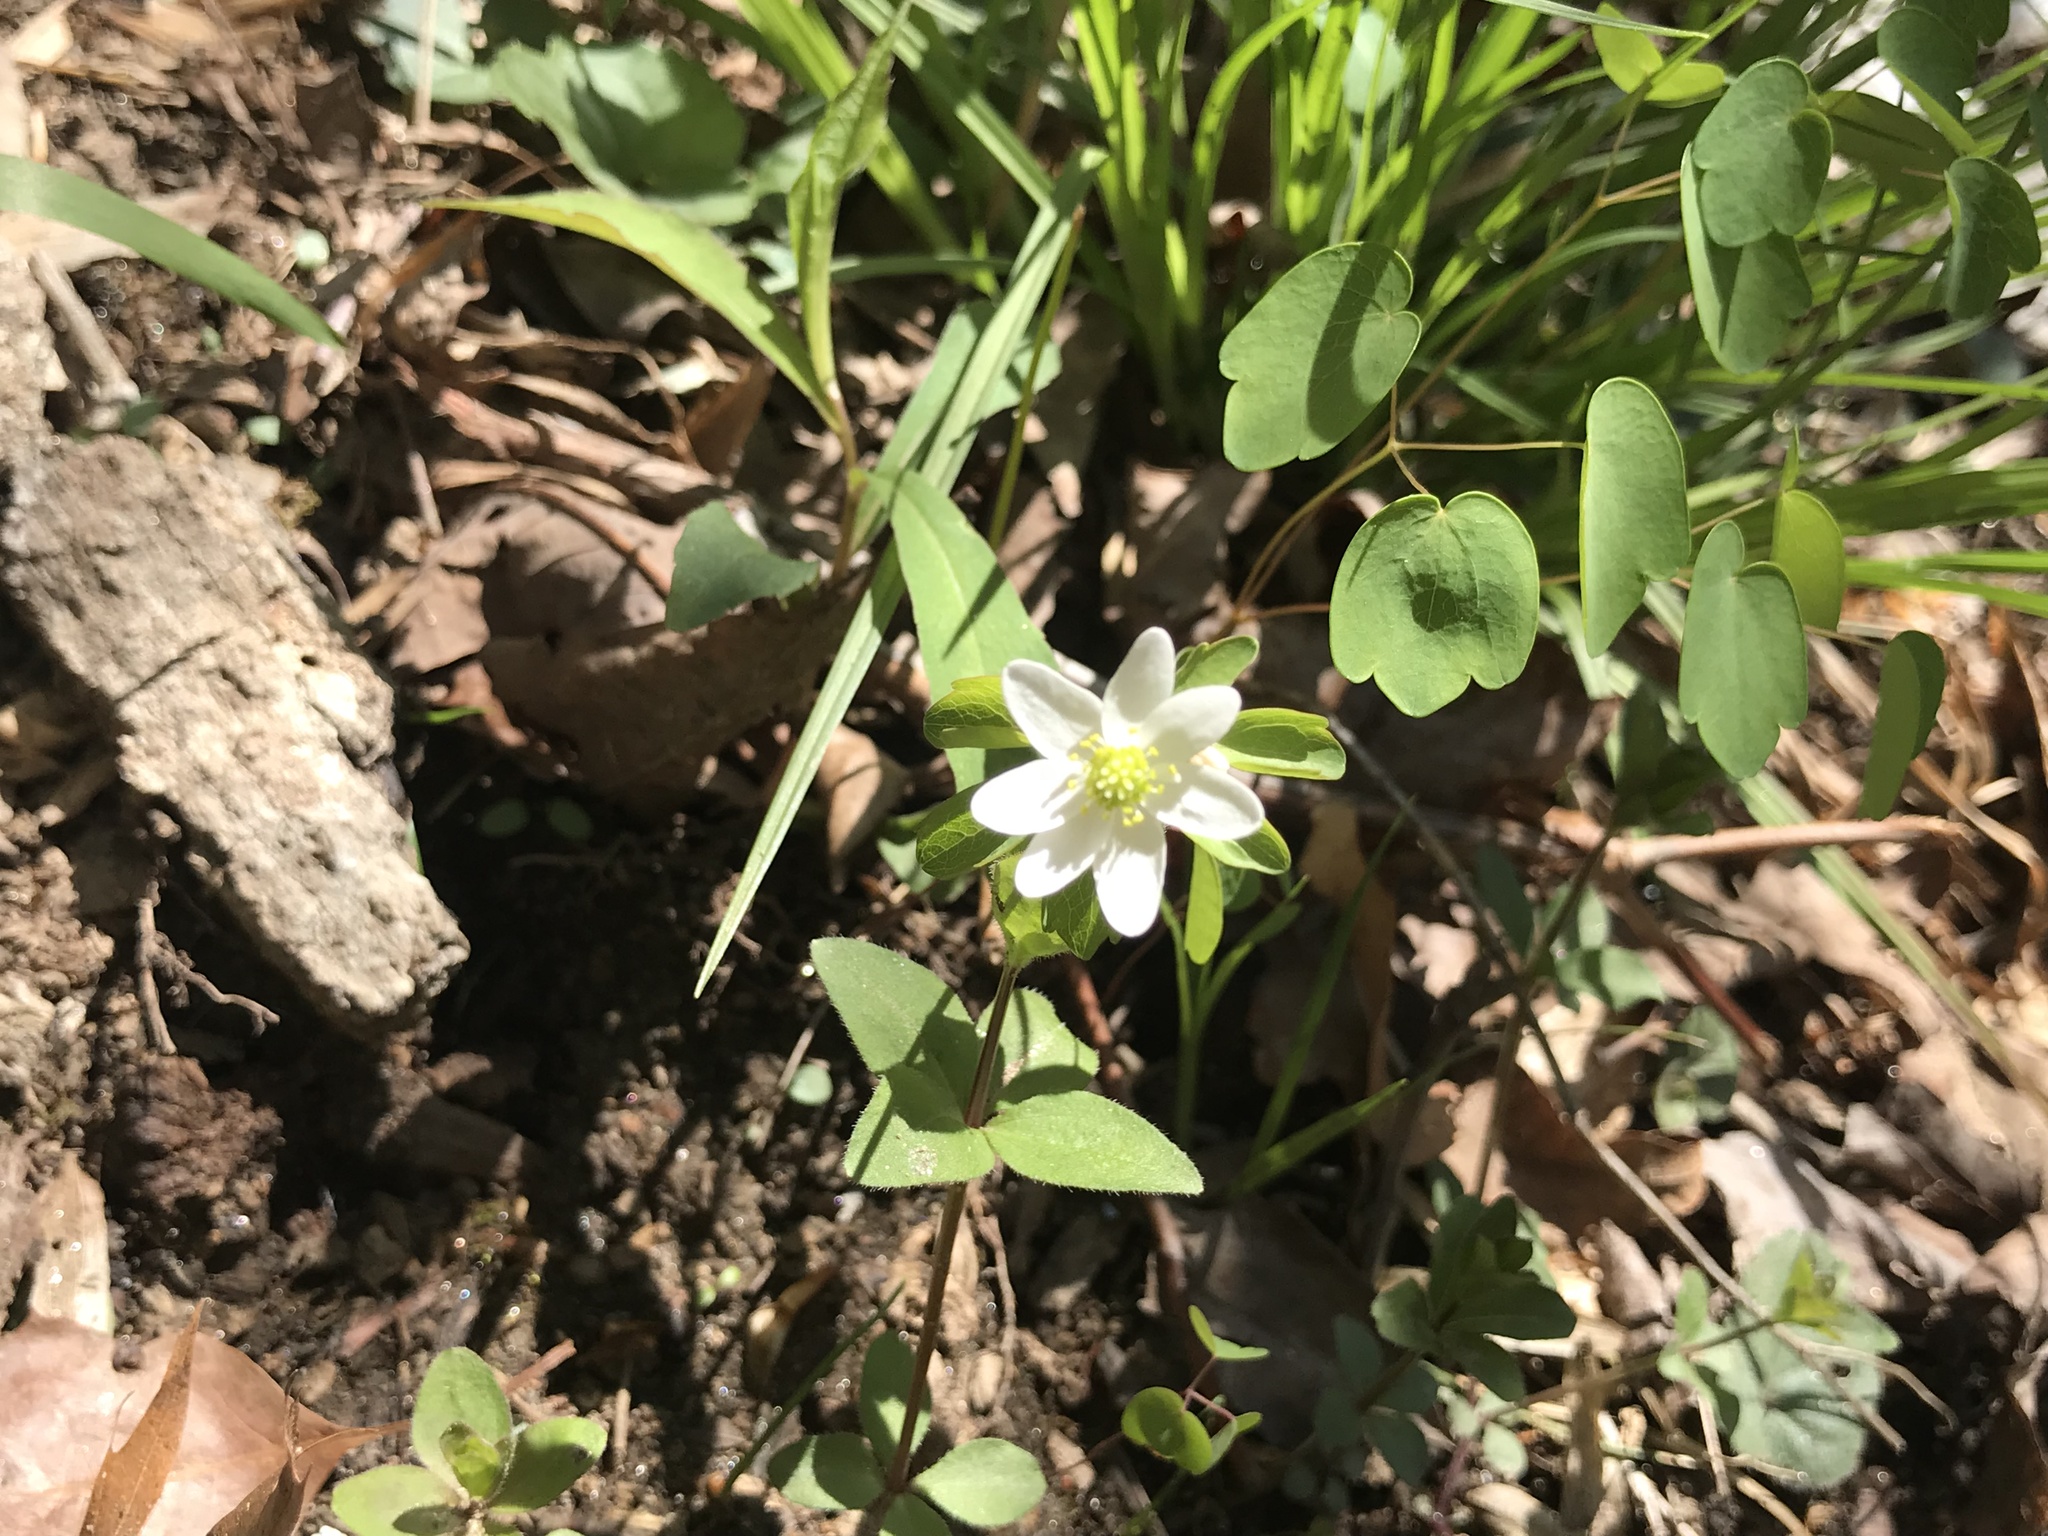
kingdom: Plantae
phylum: Tracheophyta
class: Magnoliopsida
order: Ranunculales
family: Ranunculaceae
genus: Thalictrum
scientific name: Thalictrum thalictroides
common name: Rue-anemone
